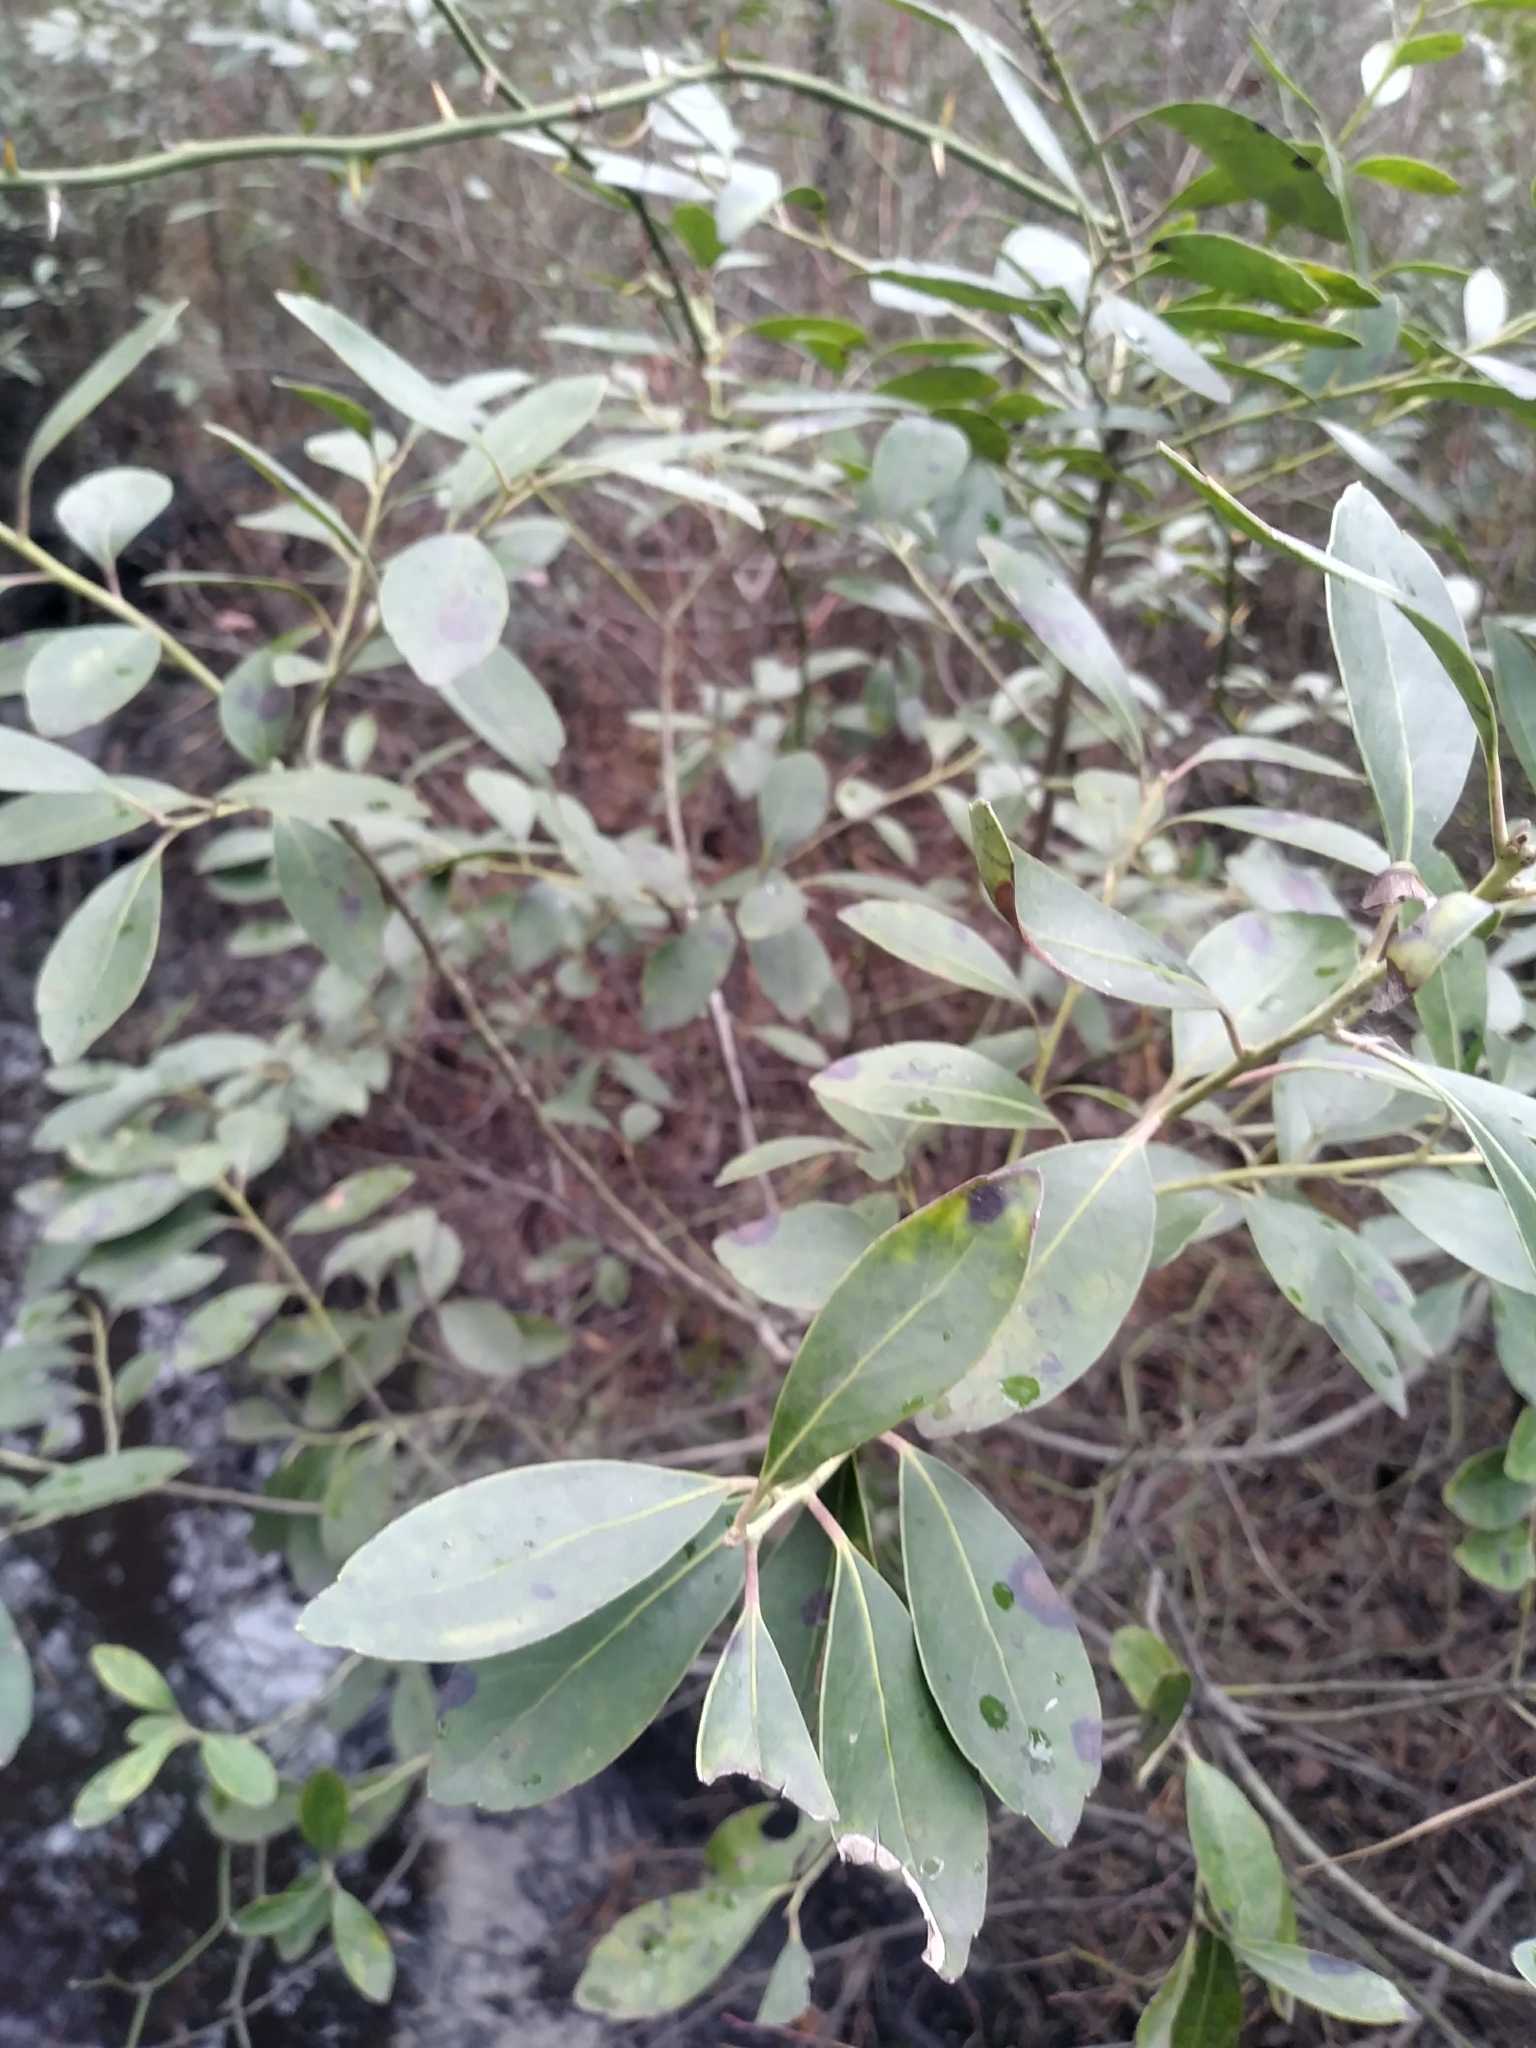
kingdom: Plantae
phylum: Tracheophyta
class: Magnoliopsida
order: Aquifoliales
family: Aquifoliaceae
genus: Ilex
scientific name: Ilex glabra
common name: Bitter gallberry
